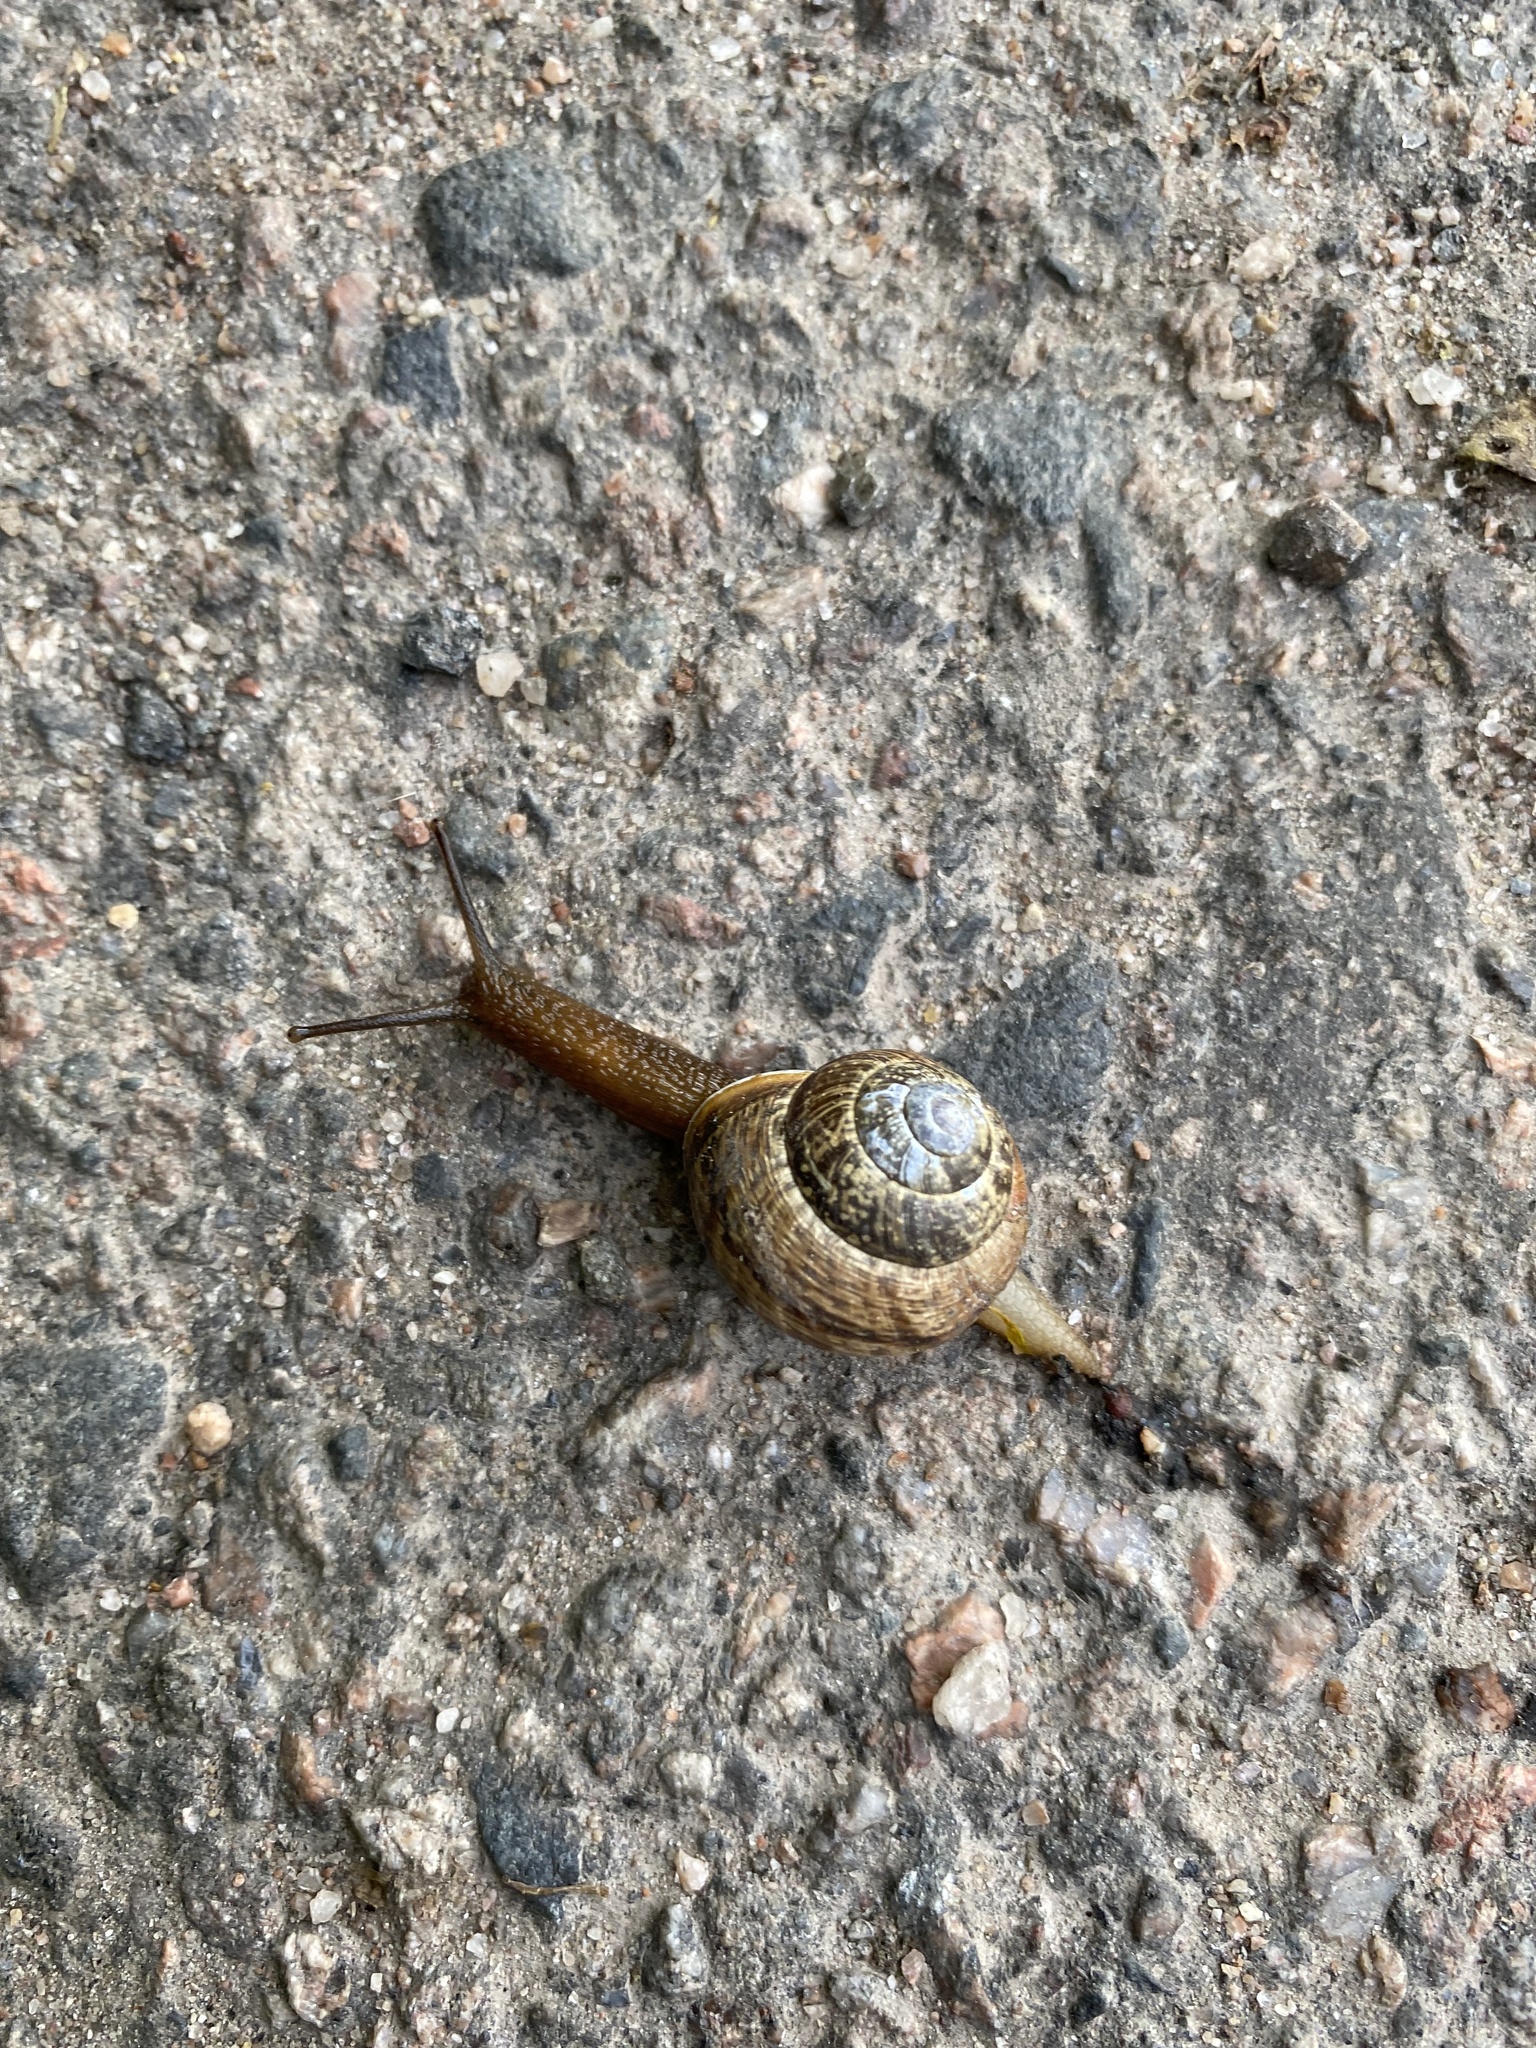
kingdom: Animalia
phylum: Mollusca
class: Gastropoda
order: Stylommatophora
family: Helicidae
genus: Arianta
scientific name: Arianta arbustorum
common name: Copse snail
